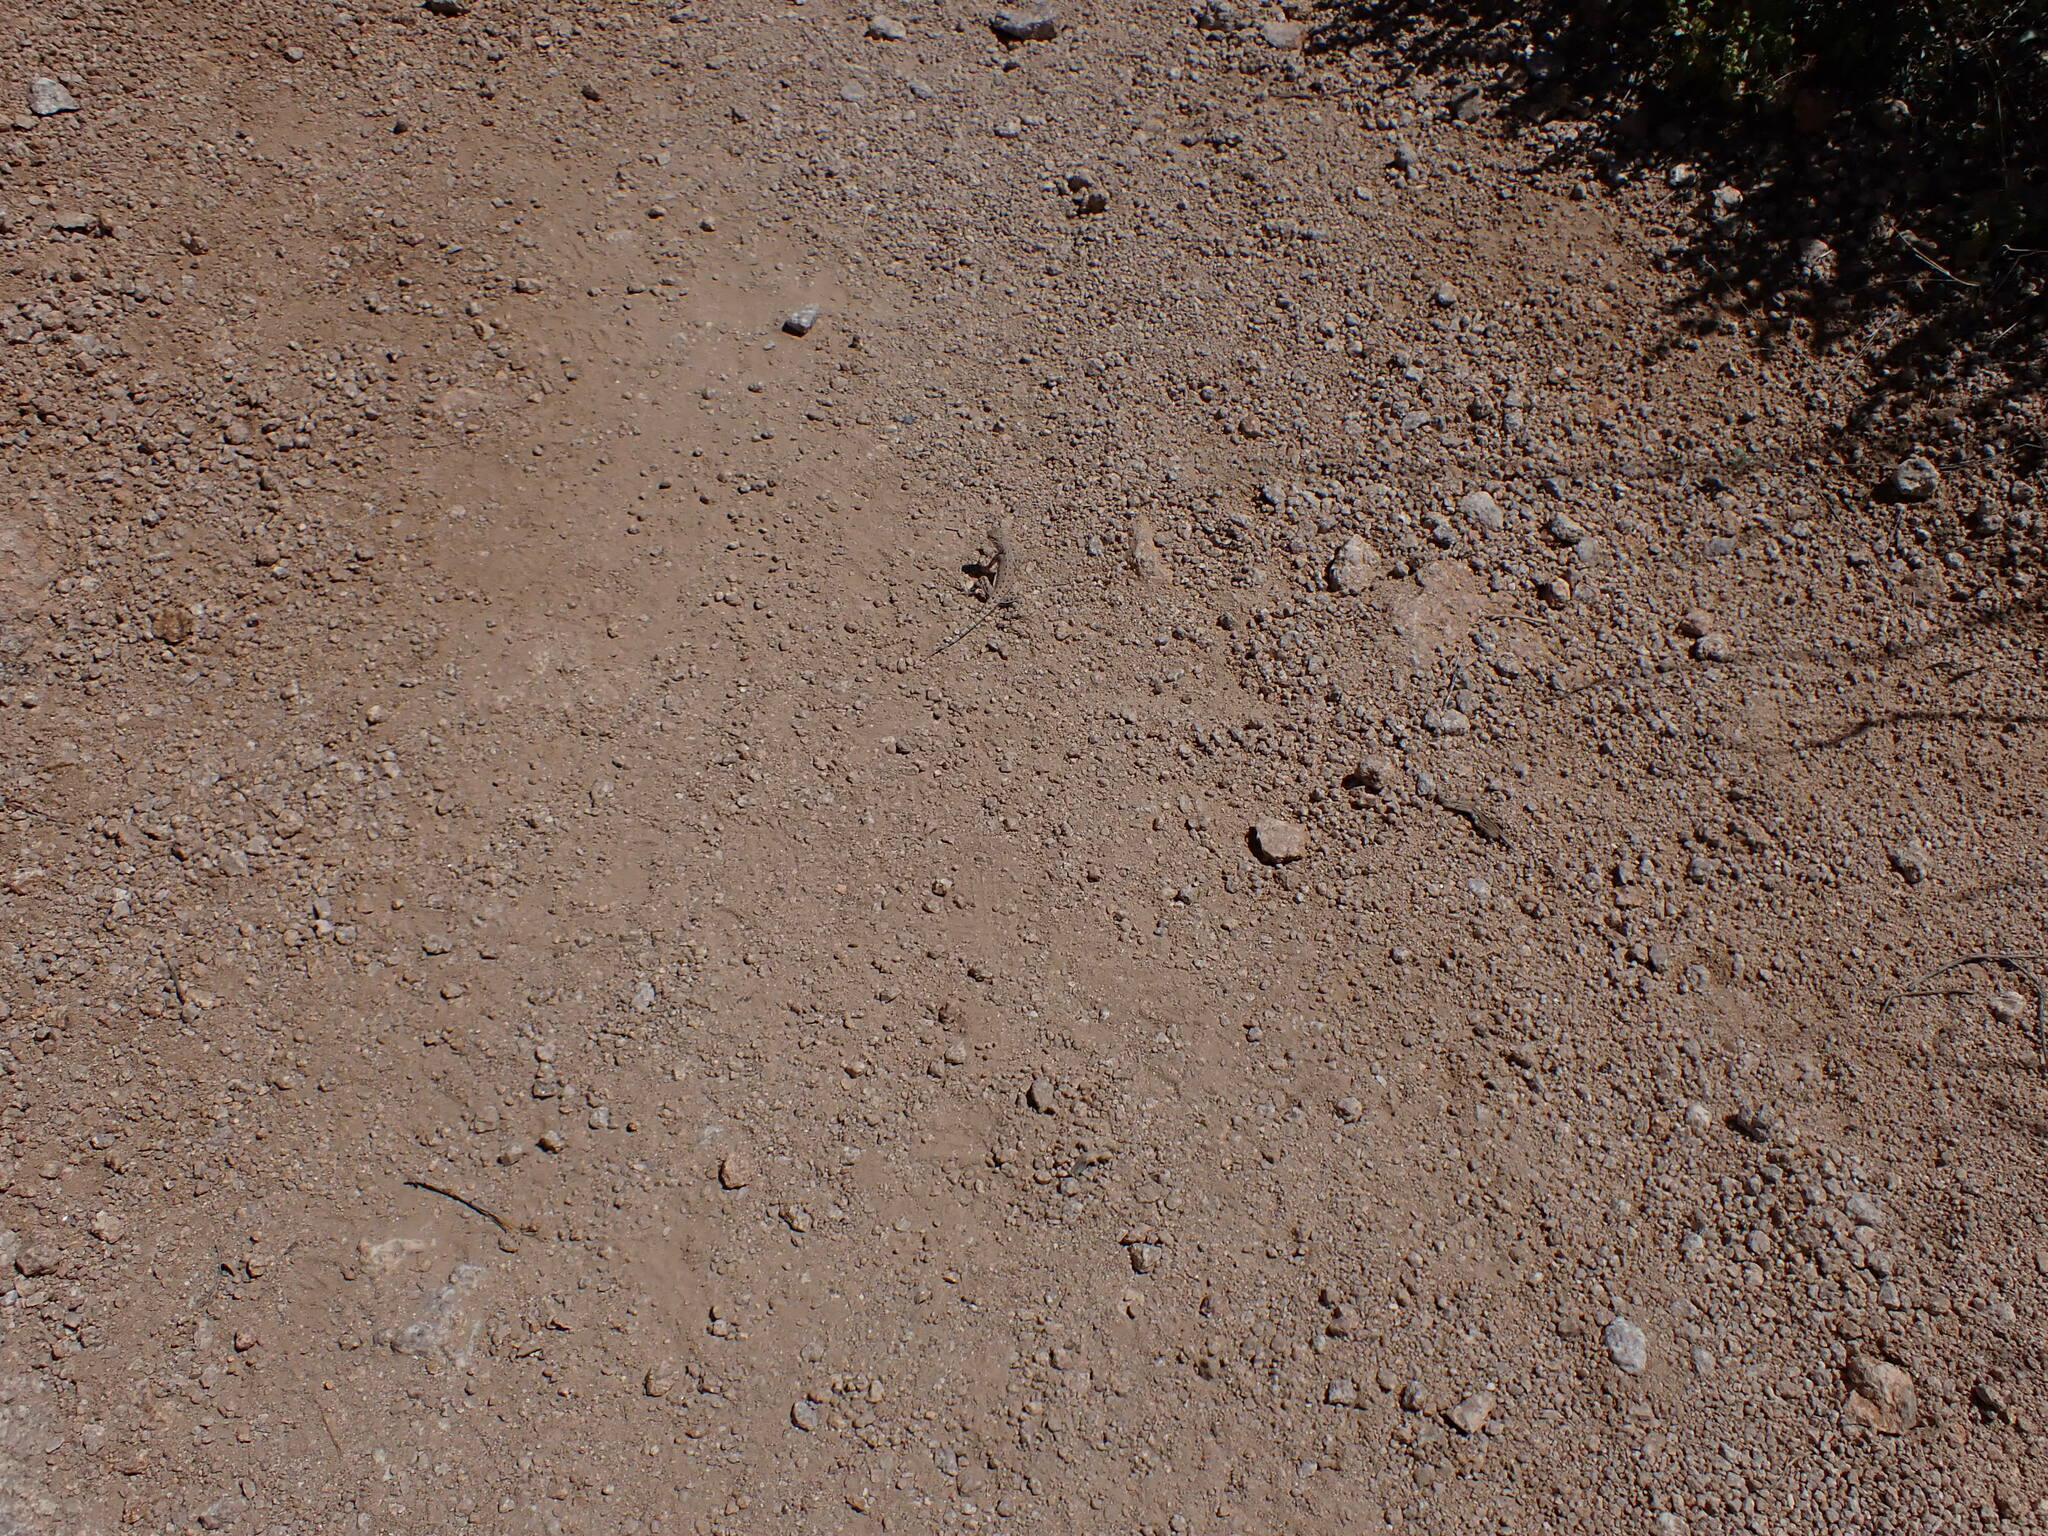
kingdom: Animalia
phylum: Chordata
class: Squamata
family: Phrynosomatidae
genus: Callisaurus
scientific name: Callisaurus draconoides
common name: Zebra-tailed lizard
